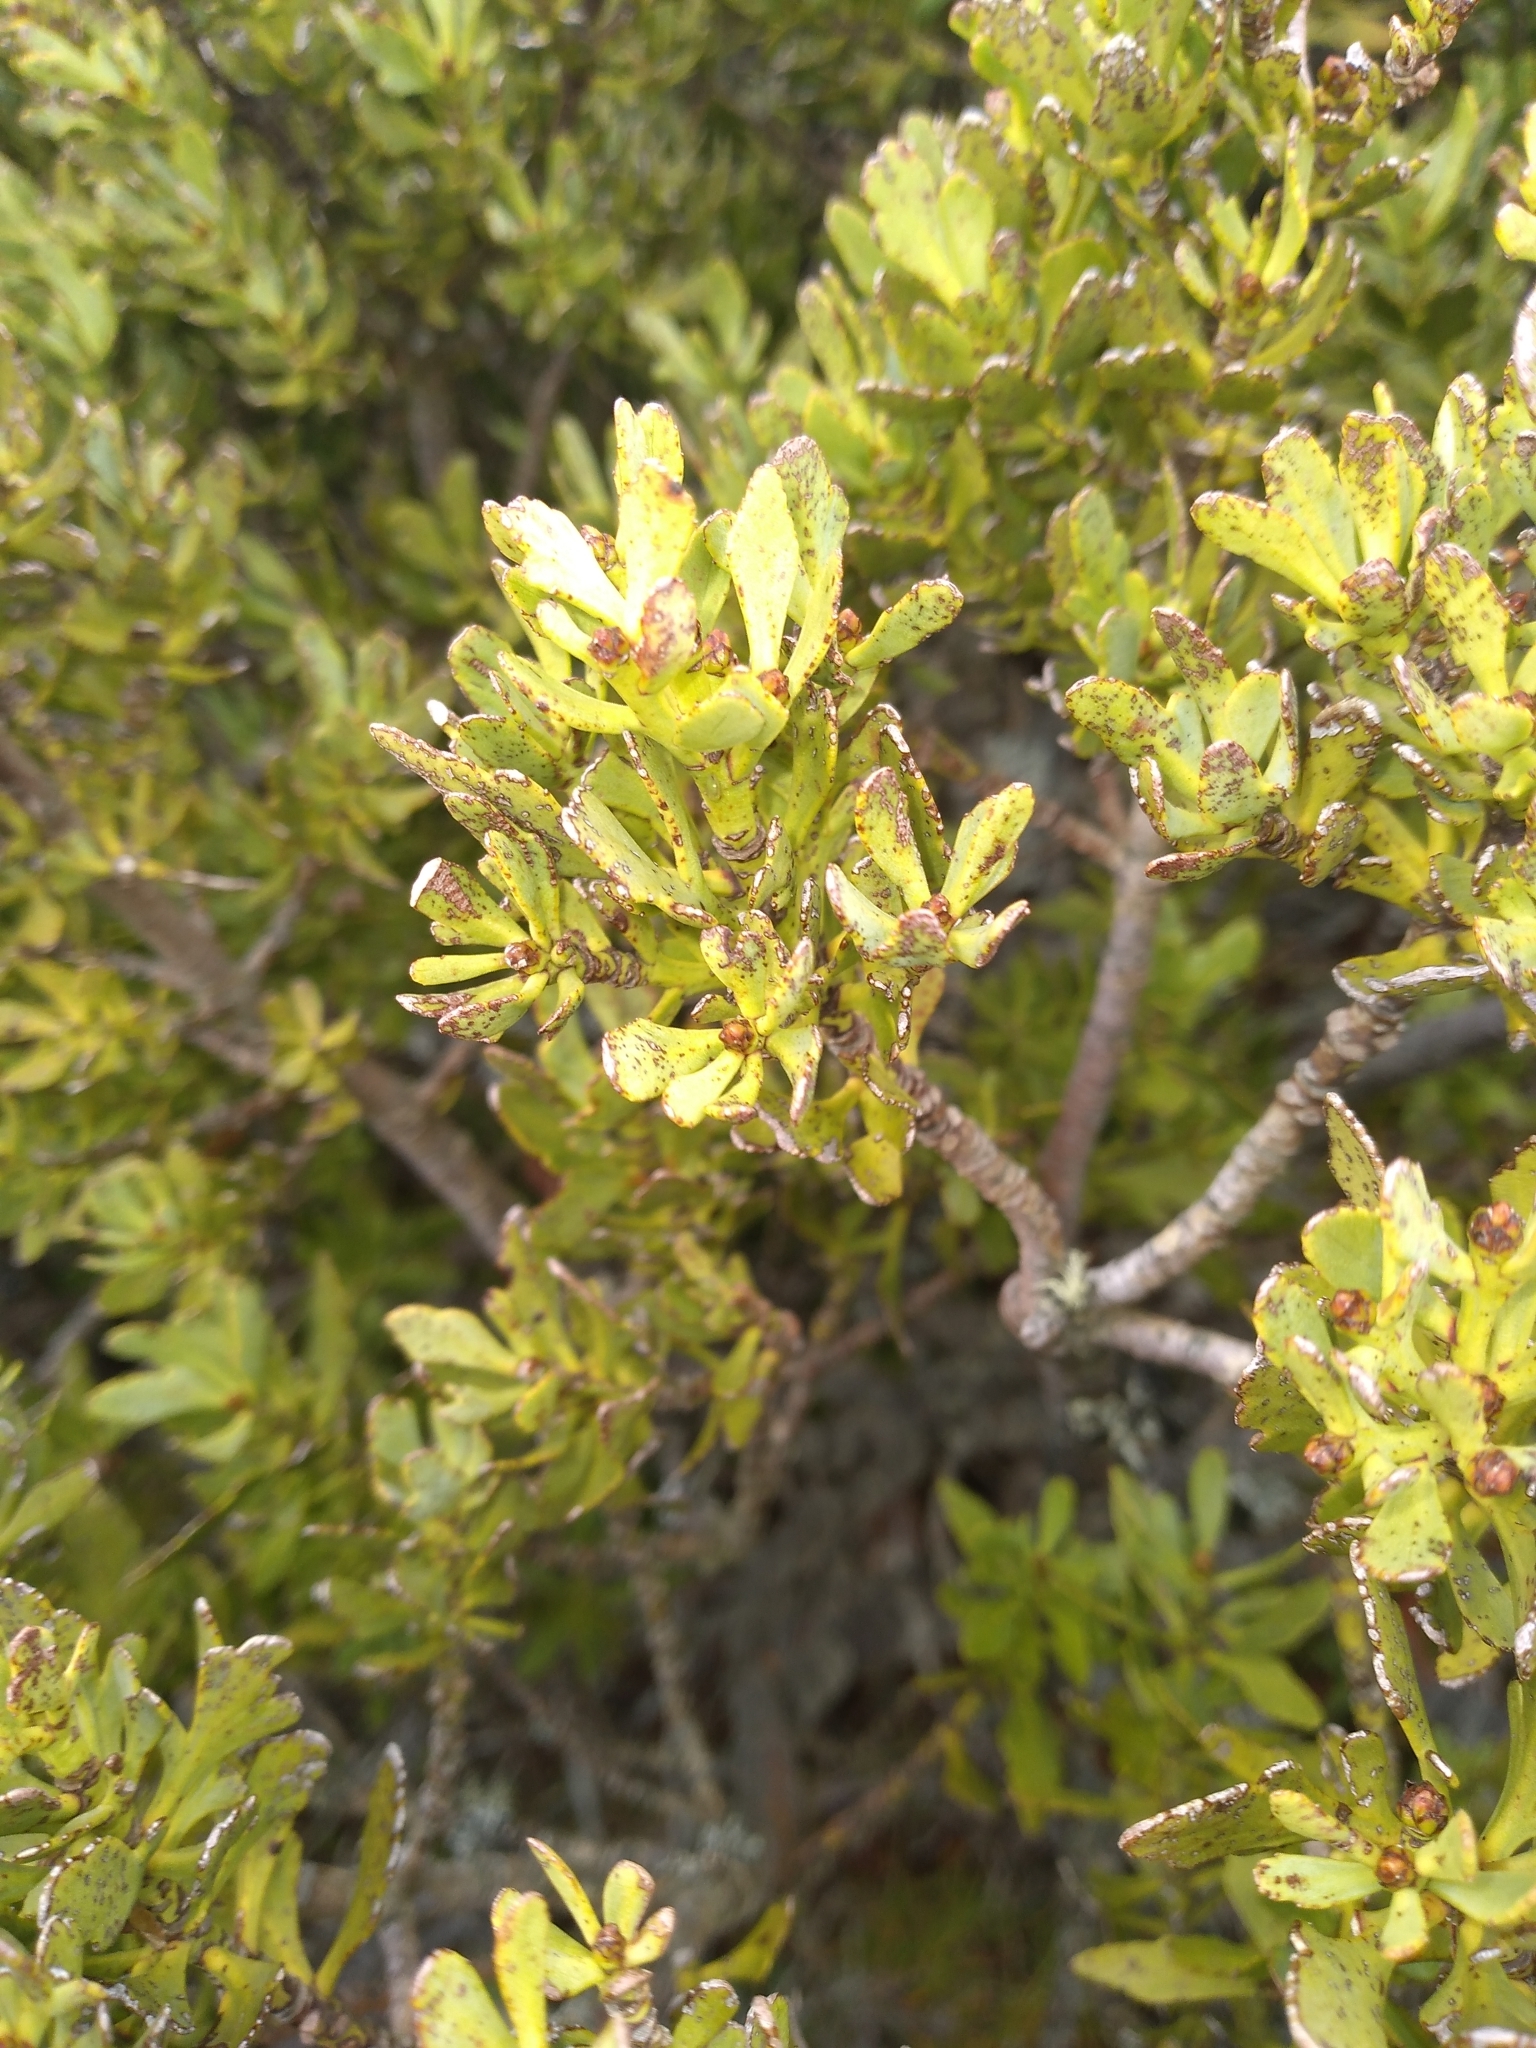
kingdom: Plantae
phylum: Tracheophyta
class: Pinopsida
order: Pinales
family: Phyllocladaceae
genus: Phyllocladus
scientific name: Phyllocladus trichomanoides
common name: Celery pine
